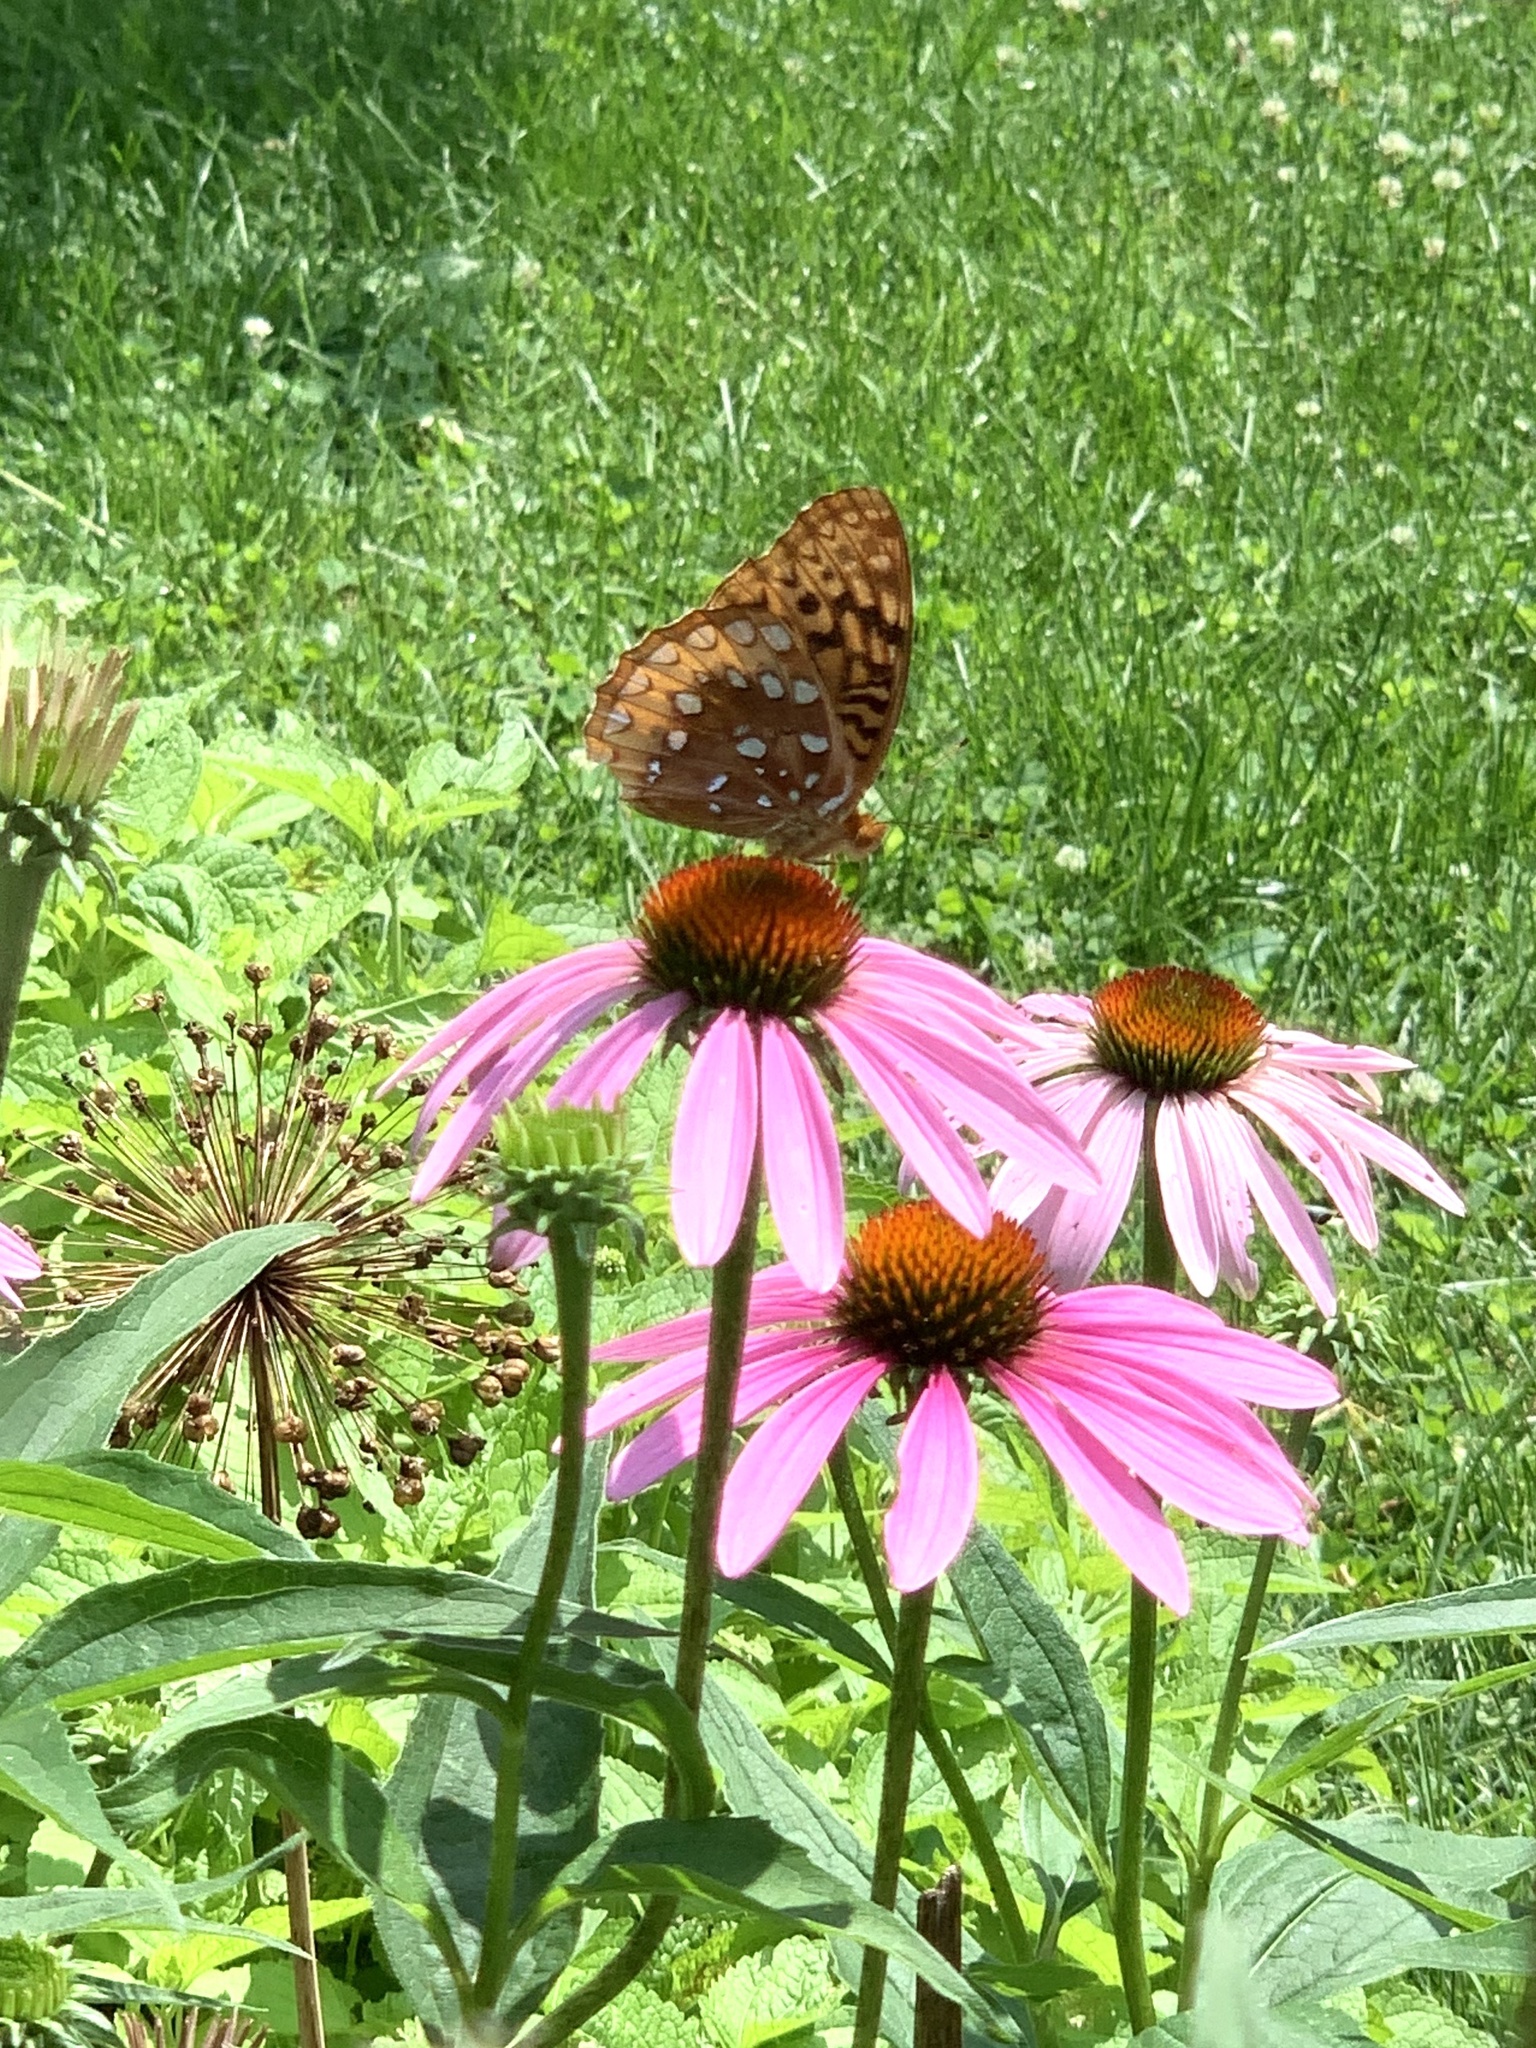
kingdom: Animalia
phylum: Arthropoda
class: Insecta
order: Lepidoptera
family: Nymphalidae
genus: Speyeria
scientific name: Speyeria cybele
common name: Great spangled fritillary
